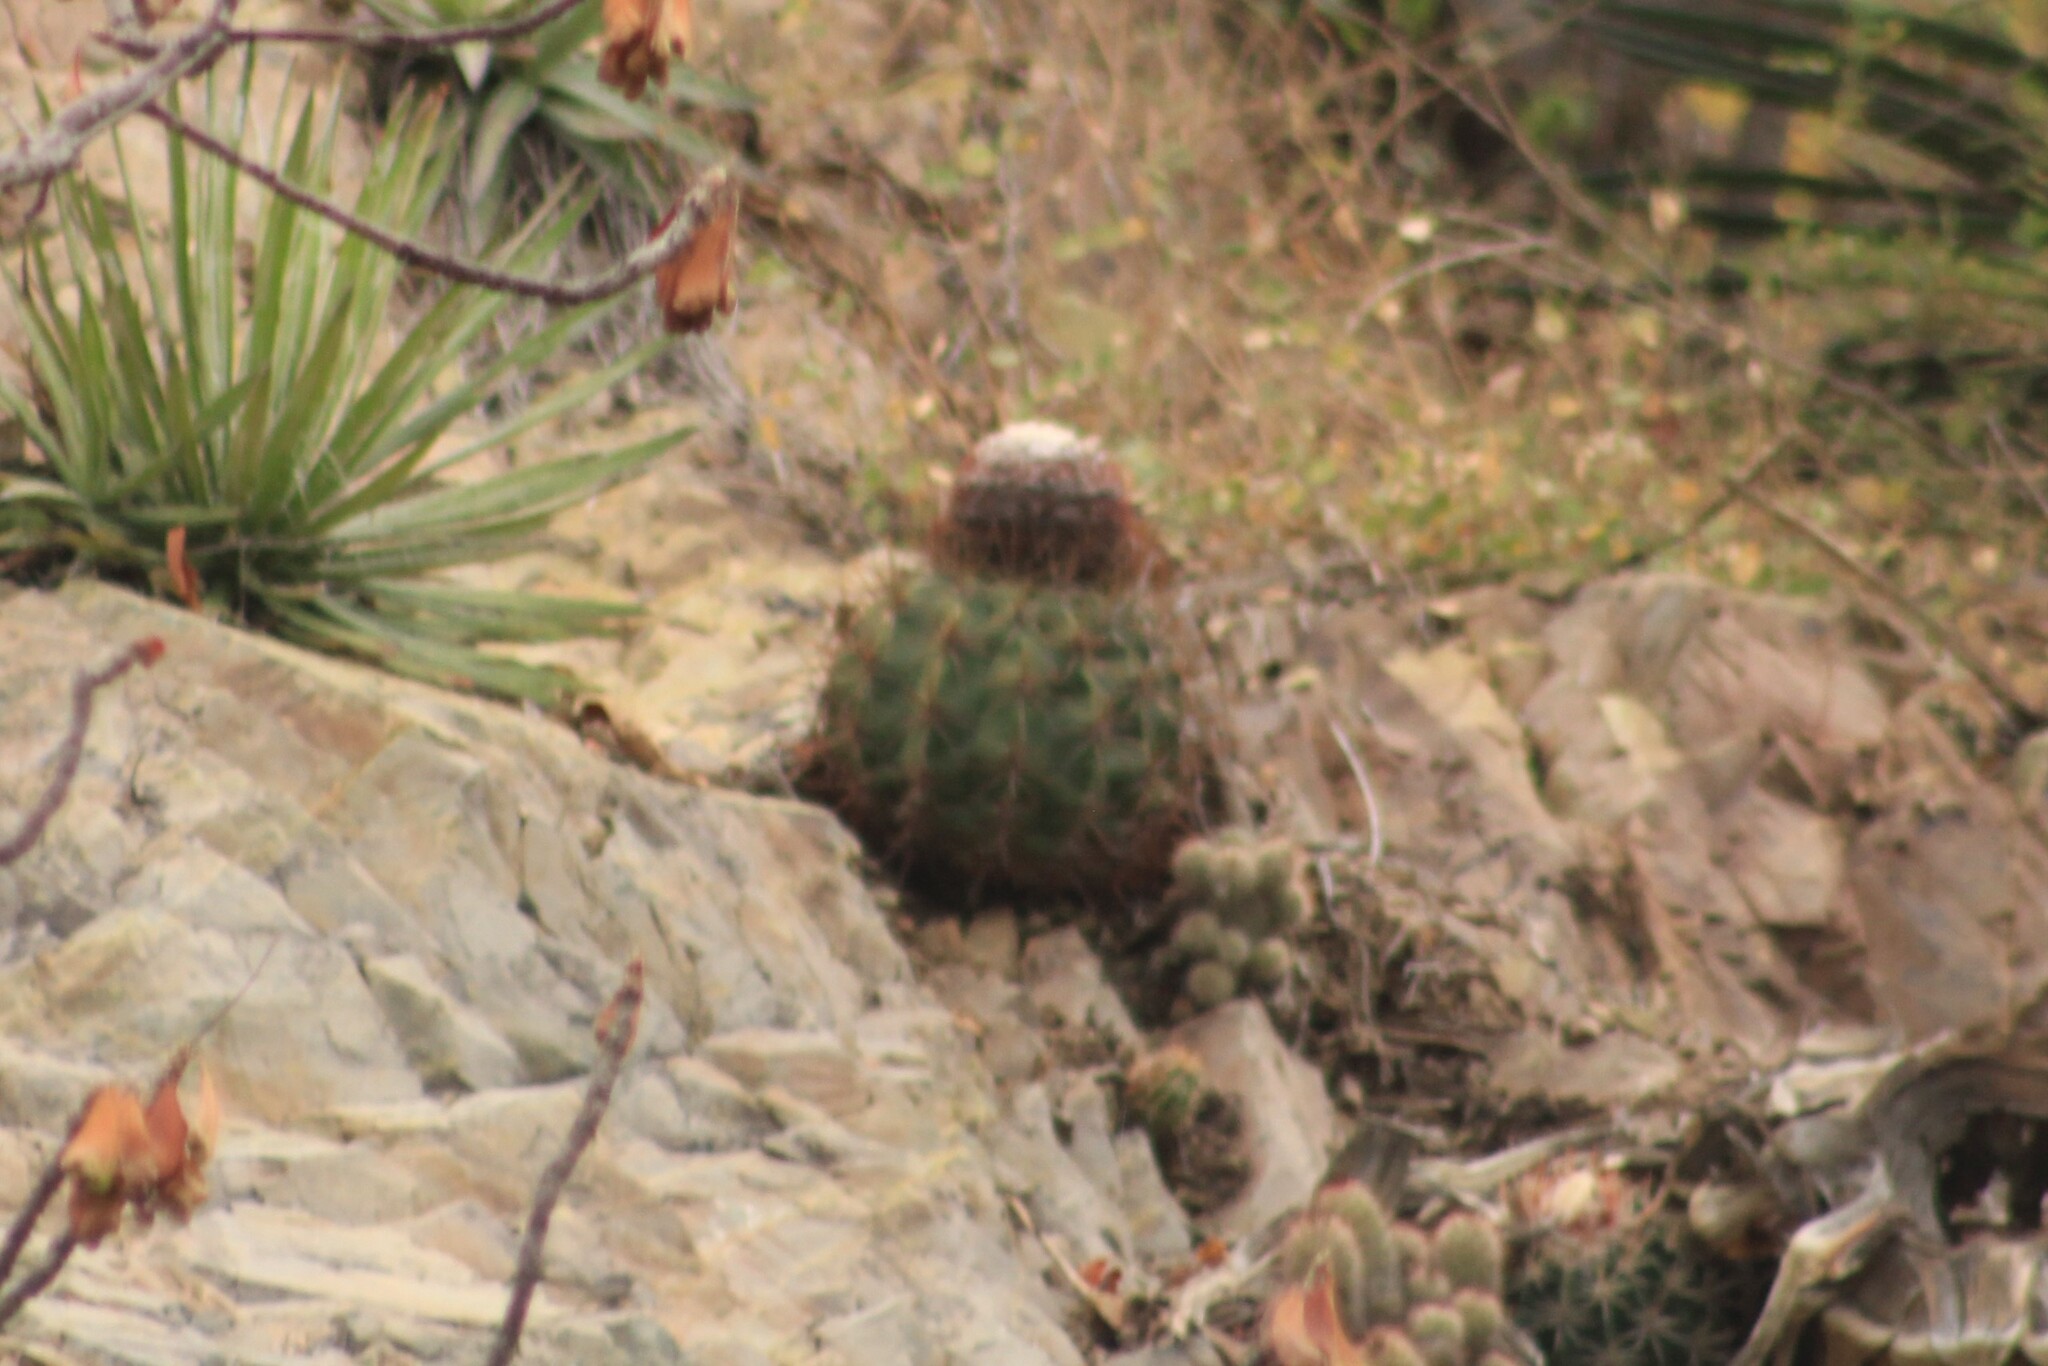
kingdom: Plantae
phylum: Tracheophyta
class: Magnoliopsida
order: Caryophyllales
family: Cactaceae
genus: Melocactus
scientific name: Melocactus curvispinus
